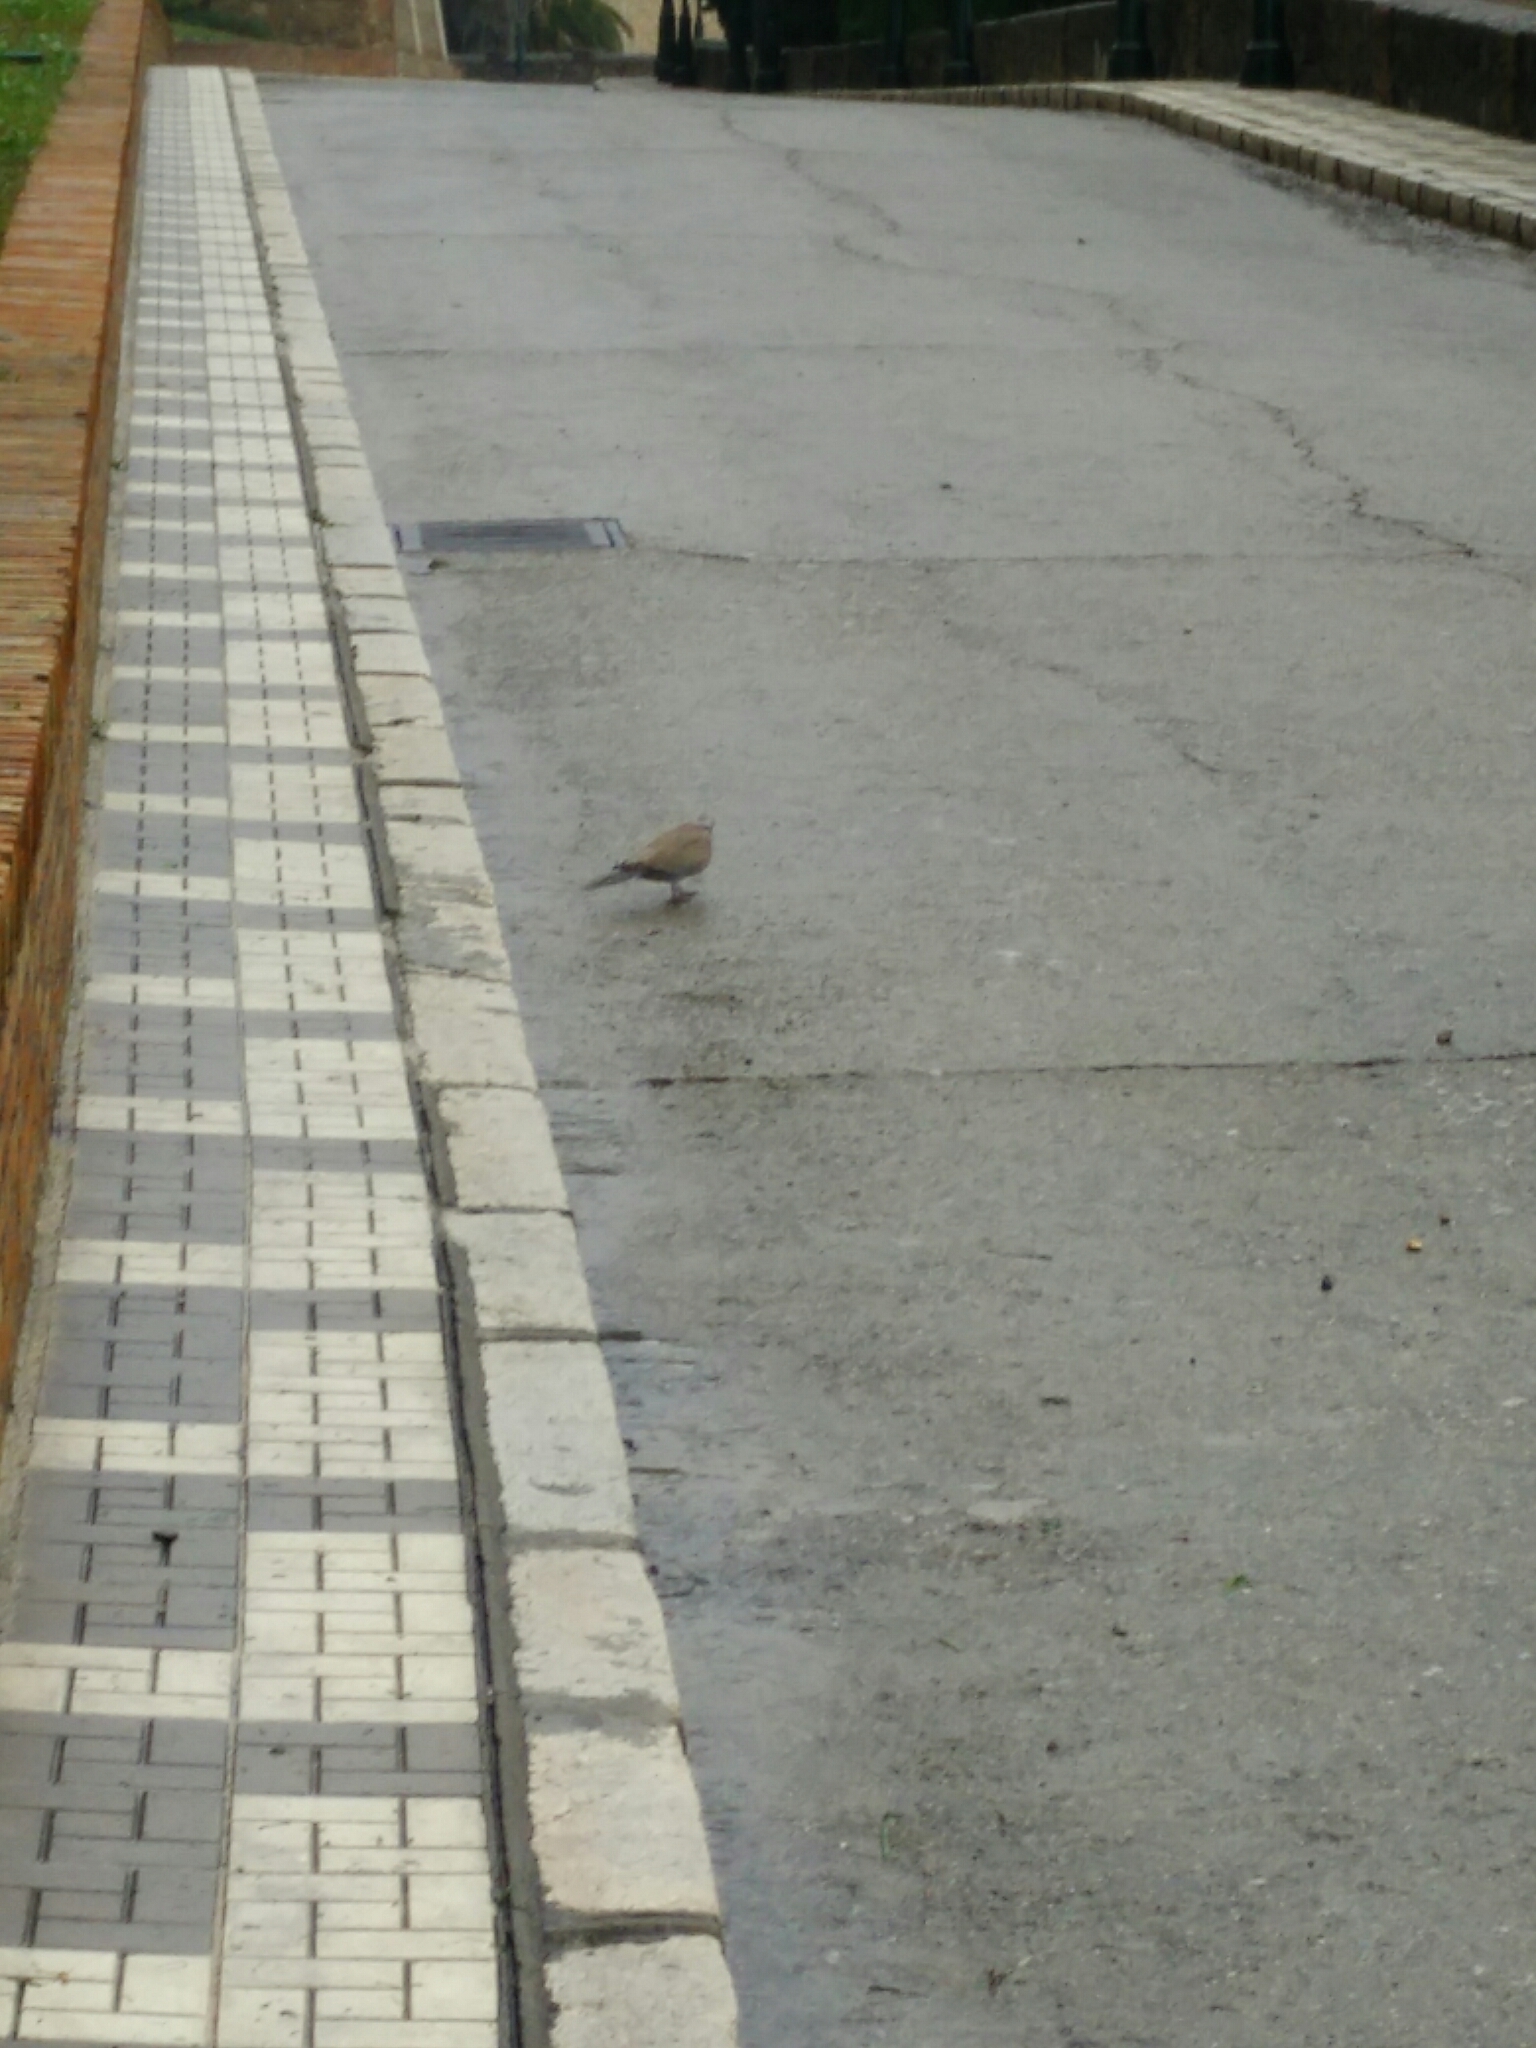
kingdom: Animalia
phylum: Chordata
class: Aves
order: Columbiformes
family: Columbidae
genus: Streptopelia
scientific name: Streptopelia decaocto
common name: Eurasian collared dove
